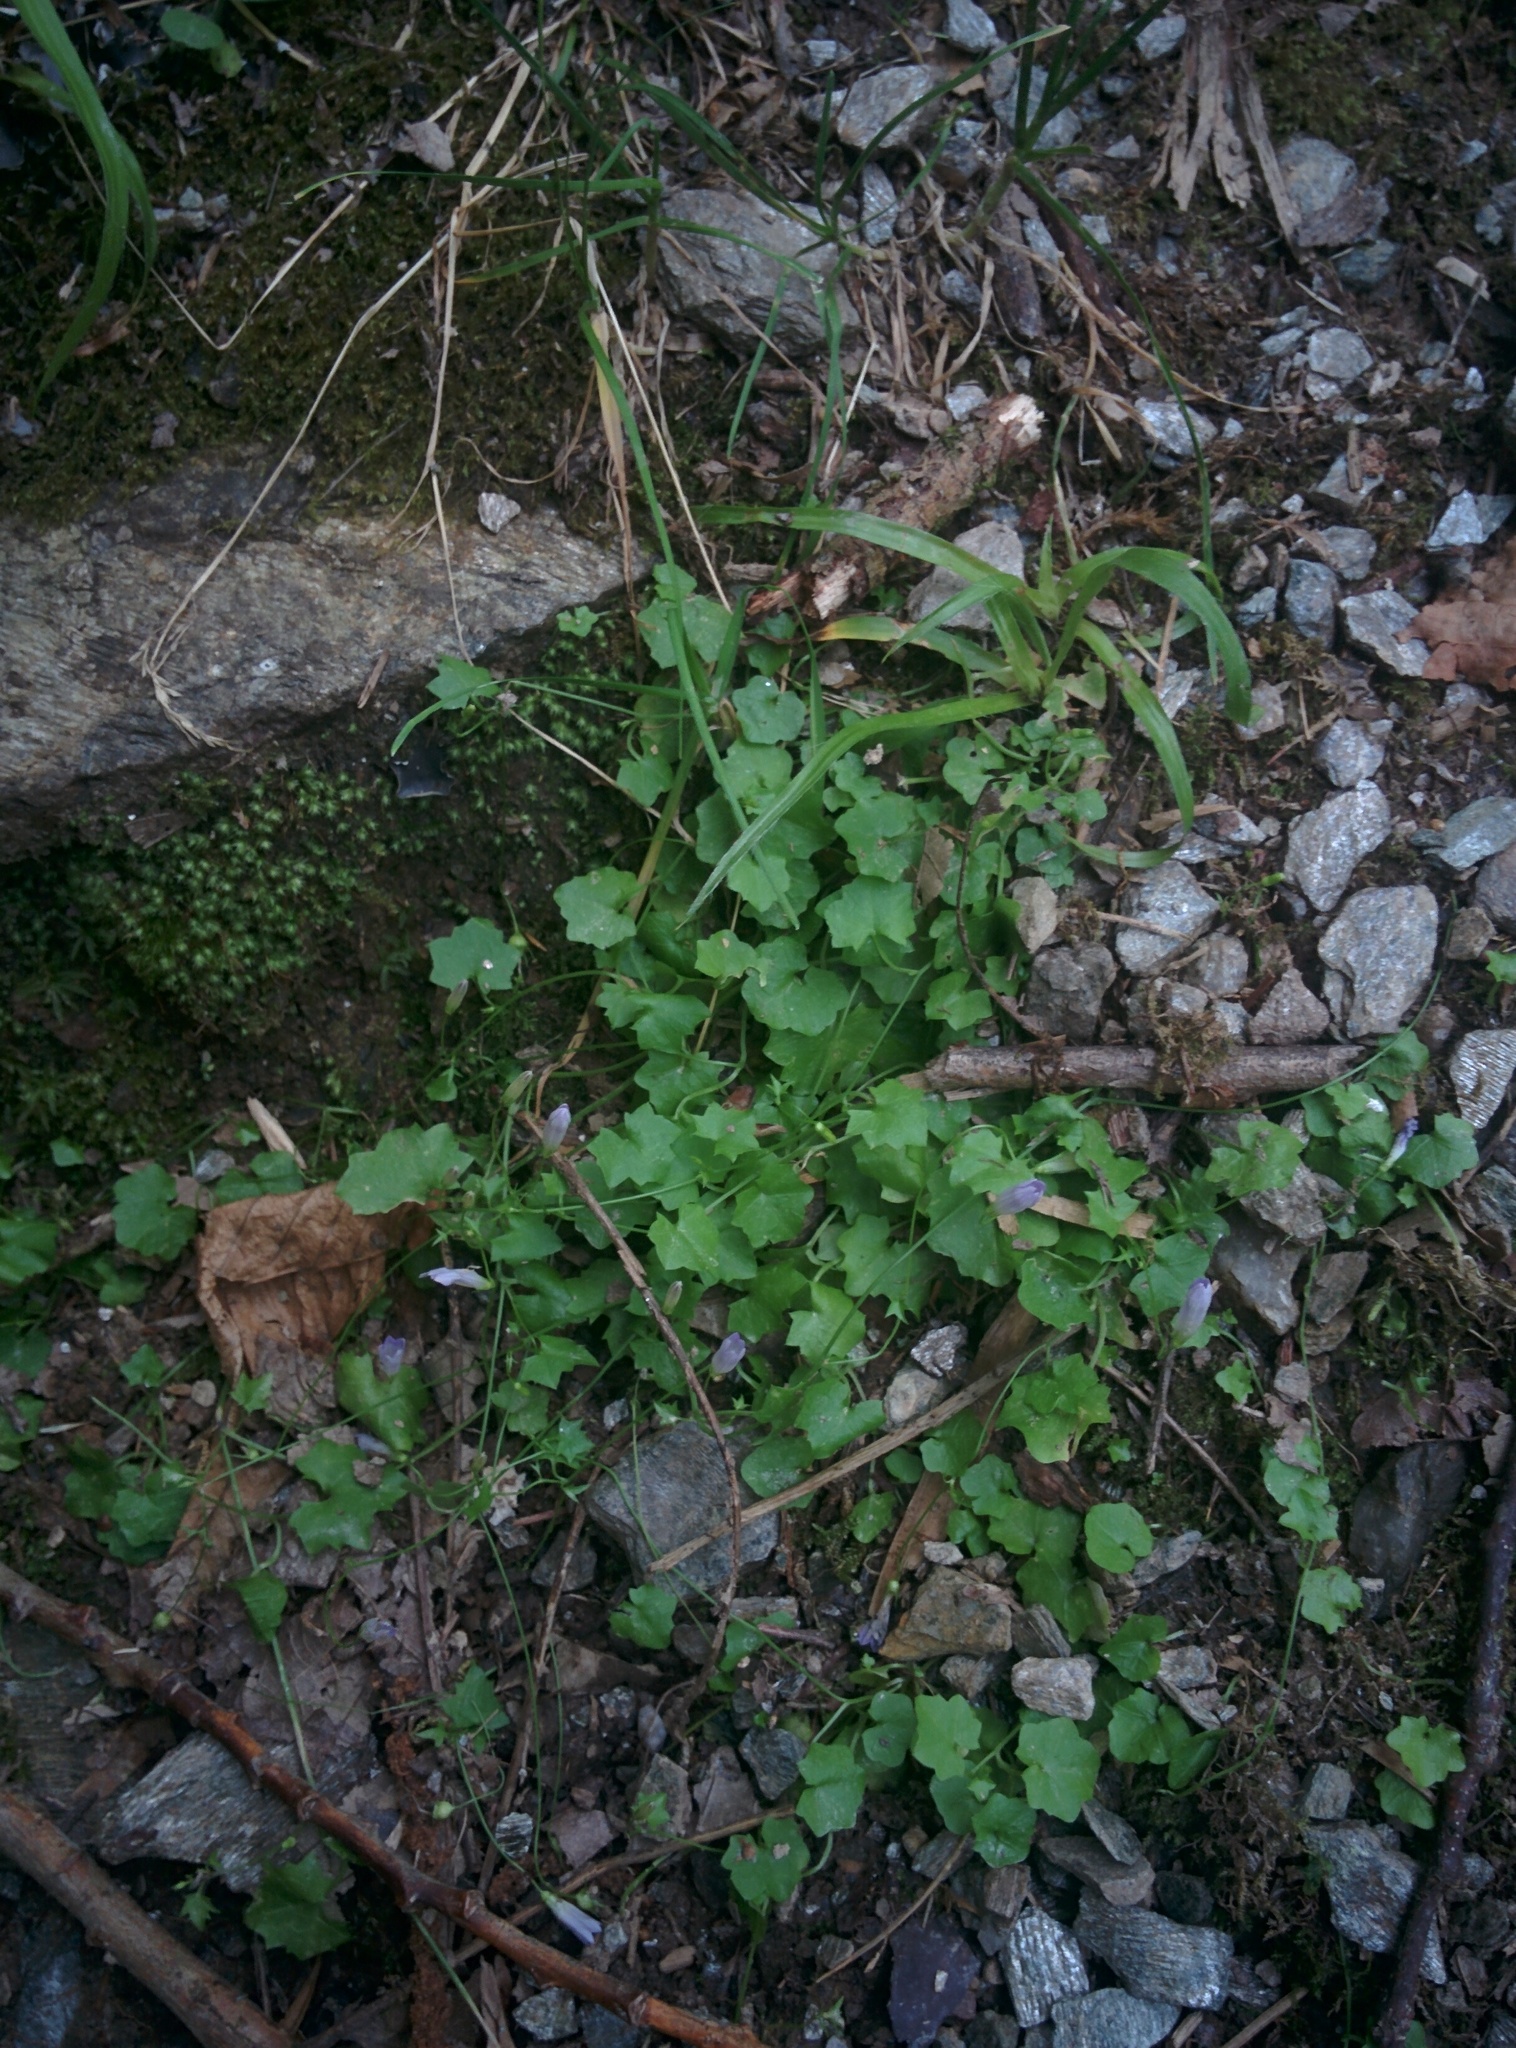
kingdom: Plantae
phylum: Tracheophyta
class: Magnoliopsida
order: Asterales
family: Campanulaceae
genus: Hesperocodon
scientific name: Hesperocodon hederaceus
